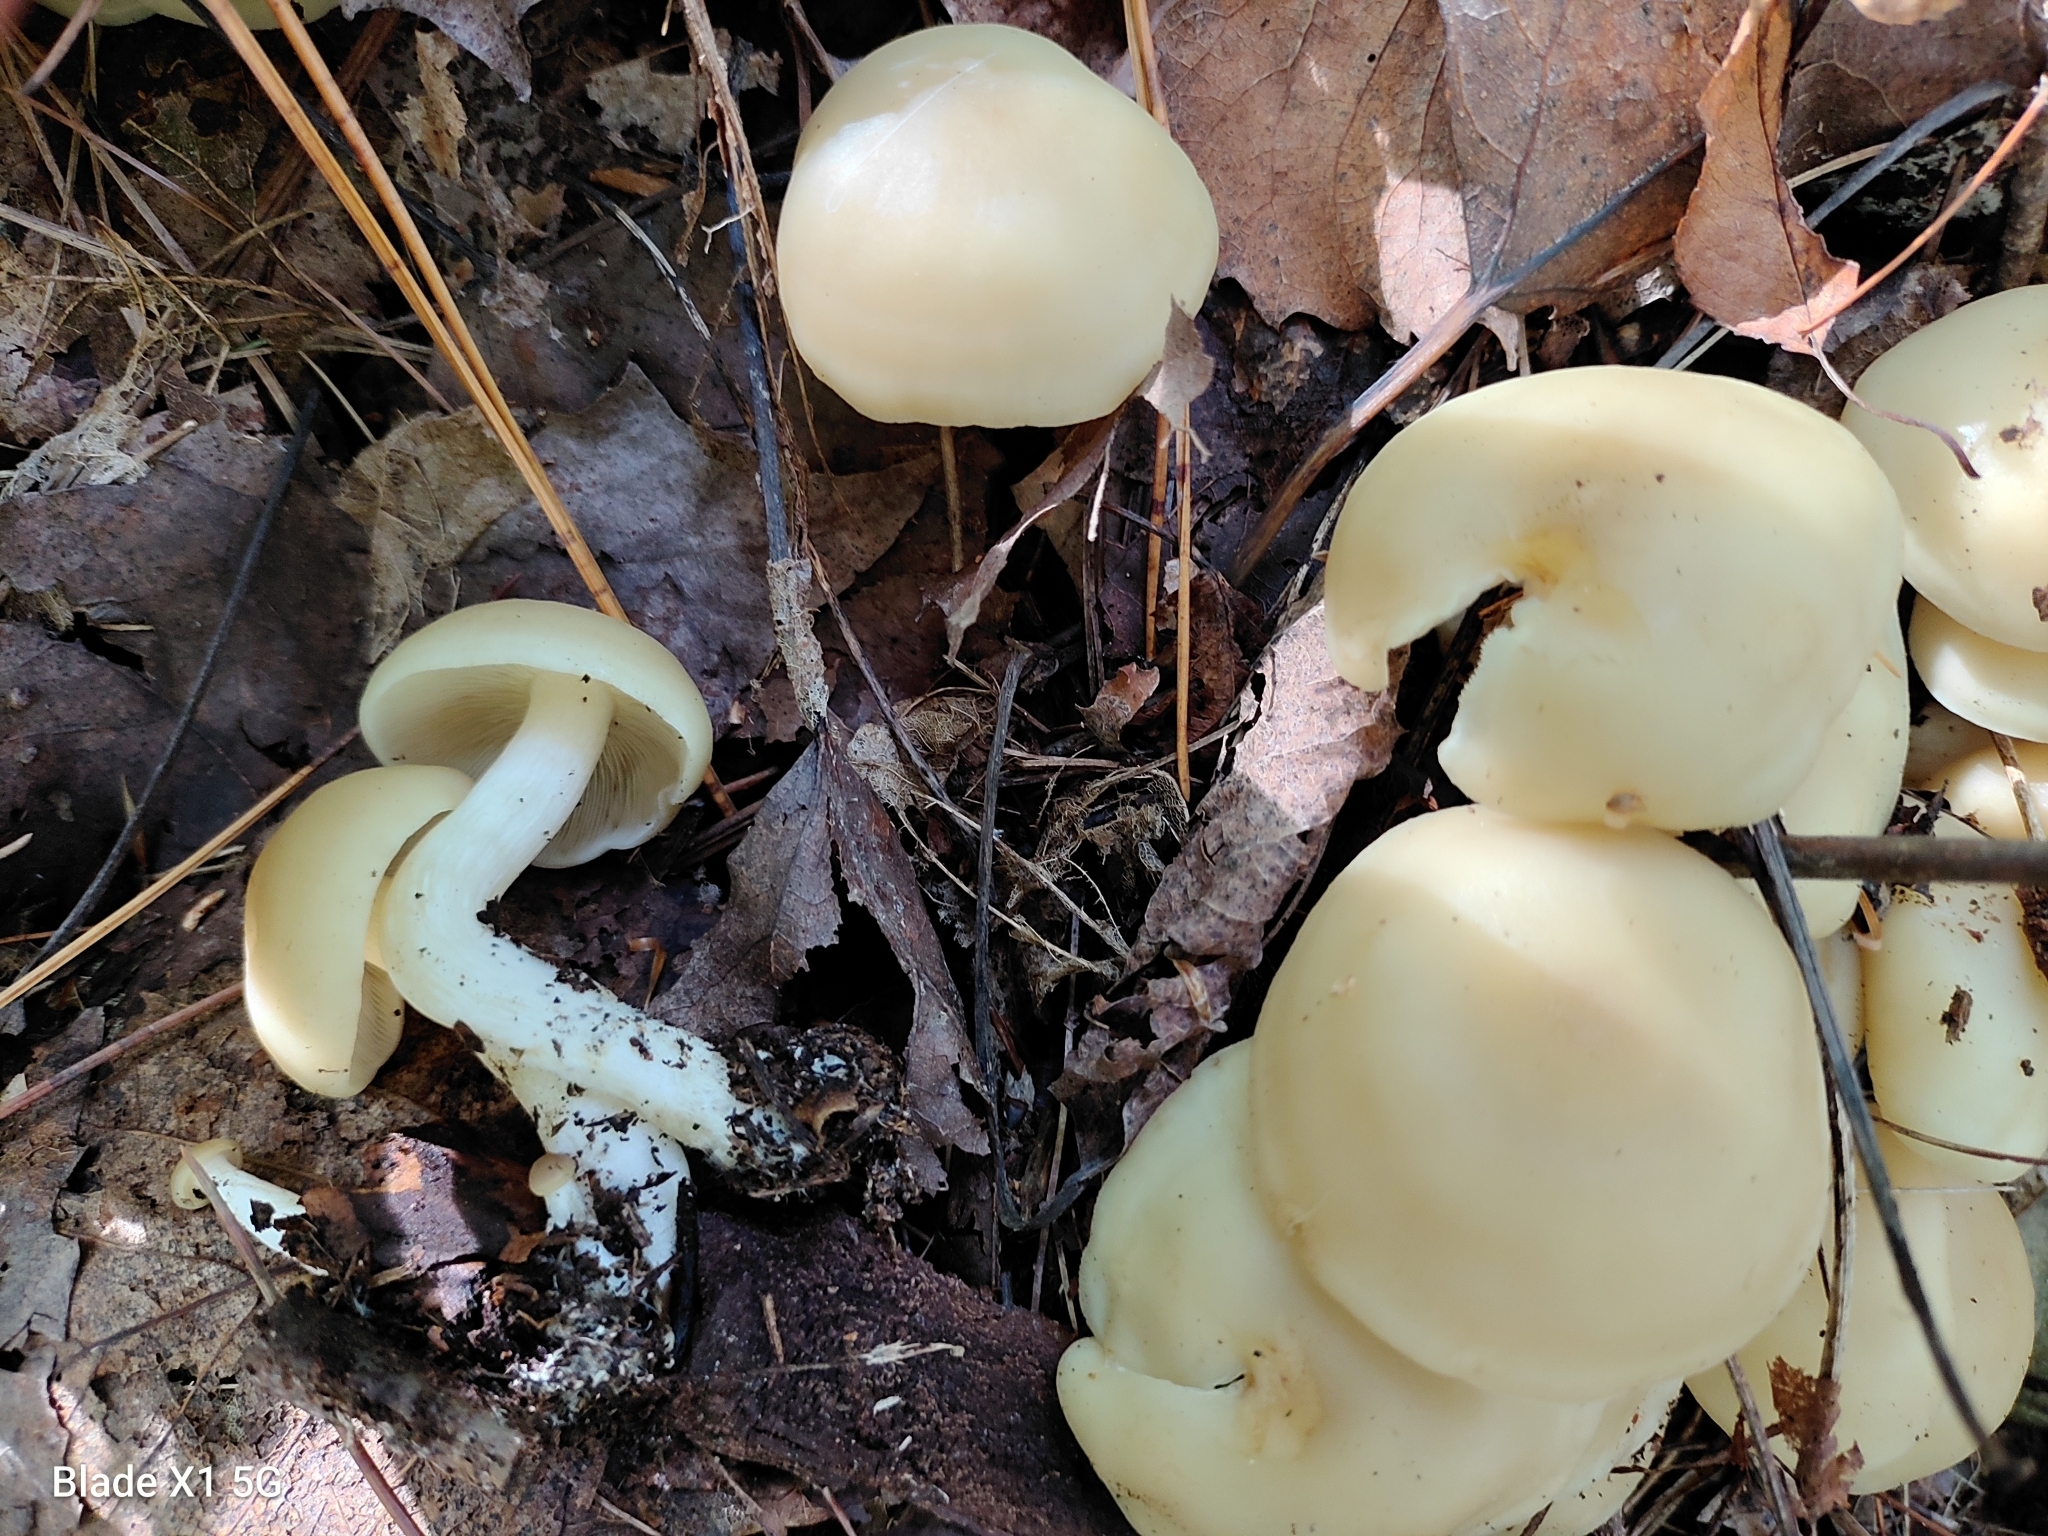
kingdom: Fungi
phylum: Basidiomycota
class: Agaricomycetes
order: Agaricales
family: Tricholomataceae
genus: Leucocybe
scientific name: Leucocybe connata
